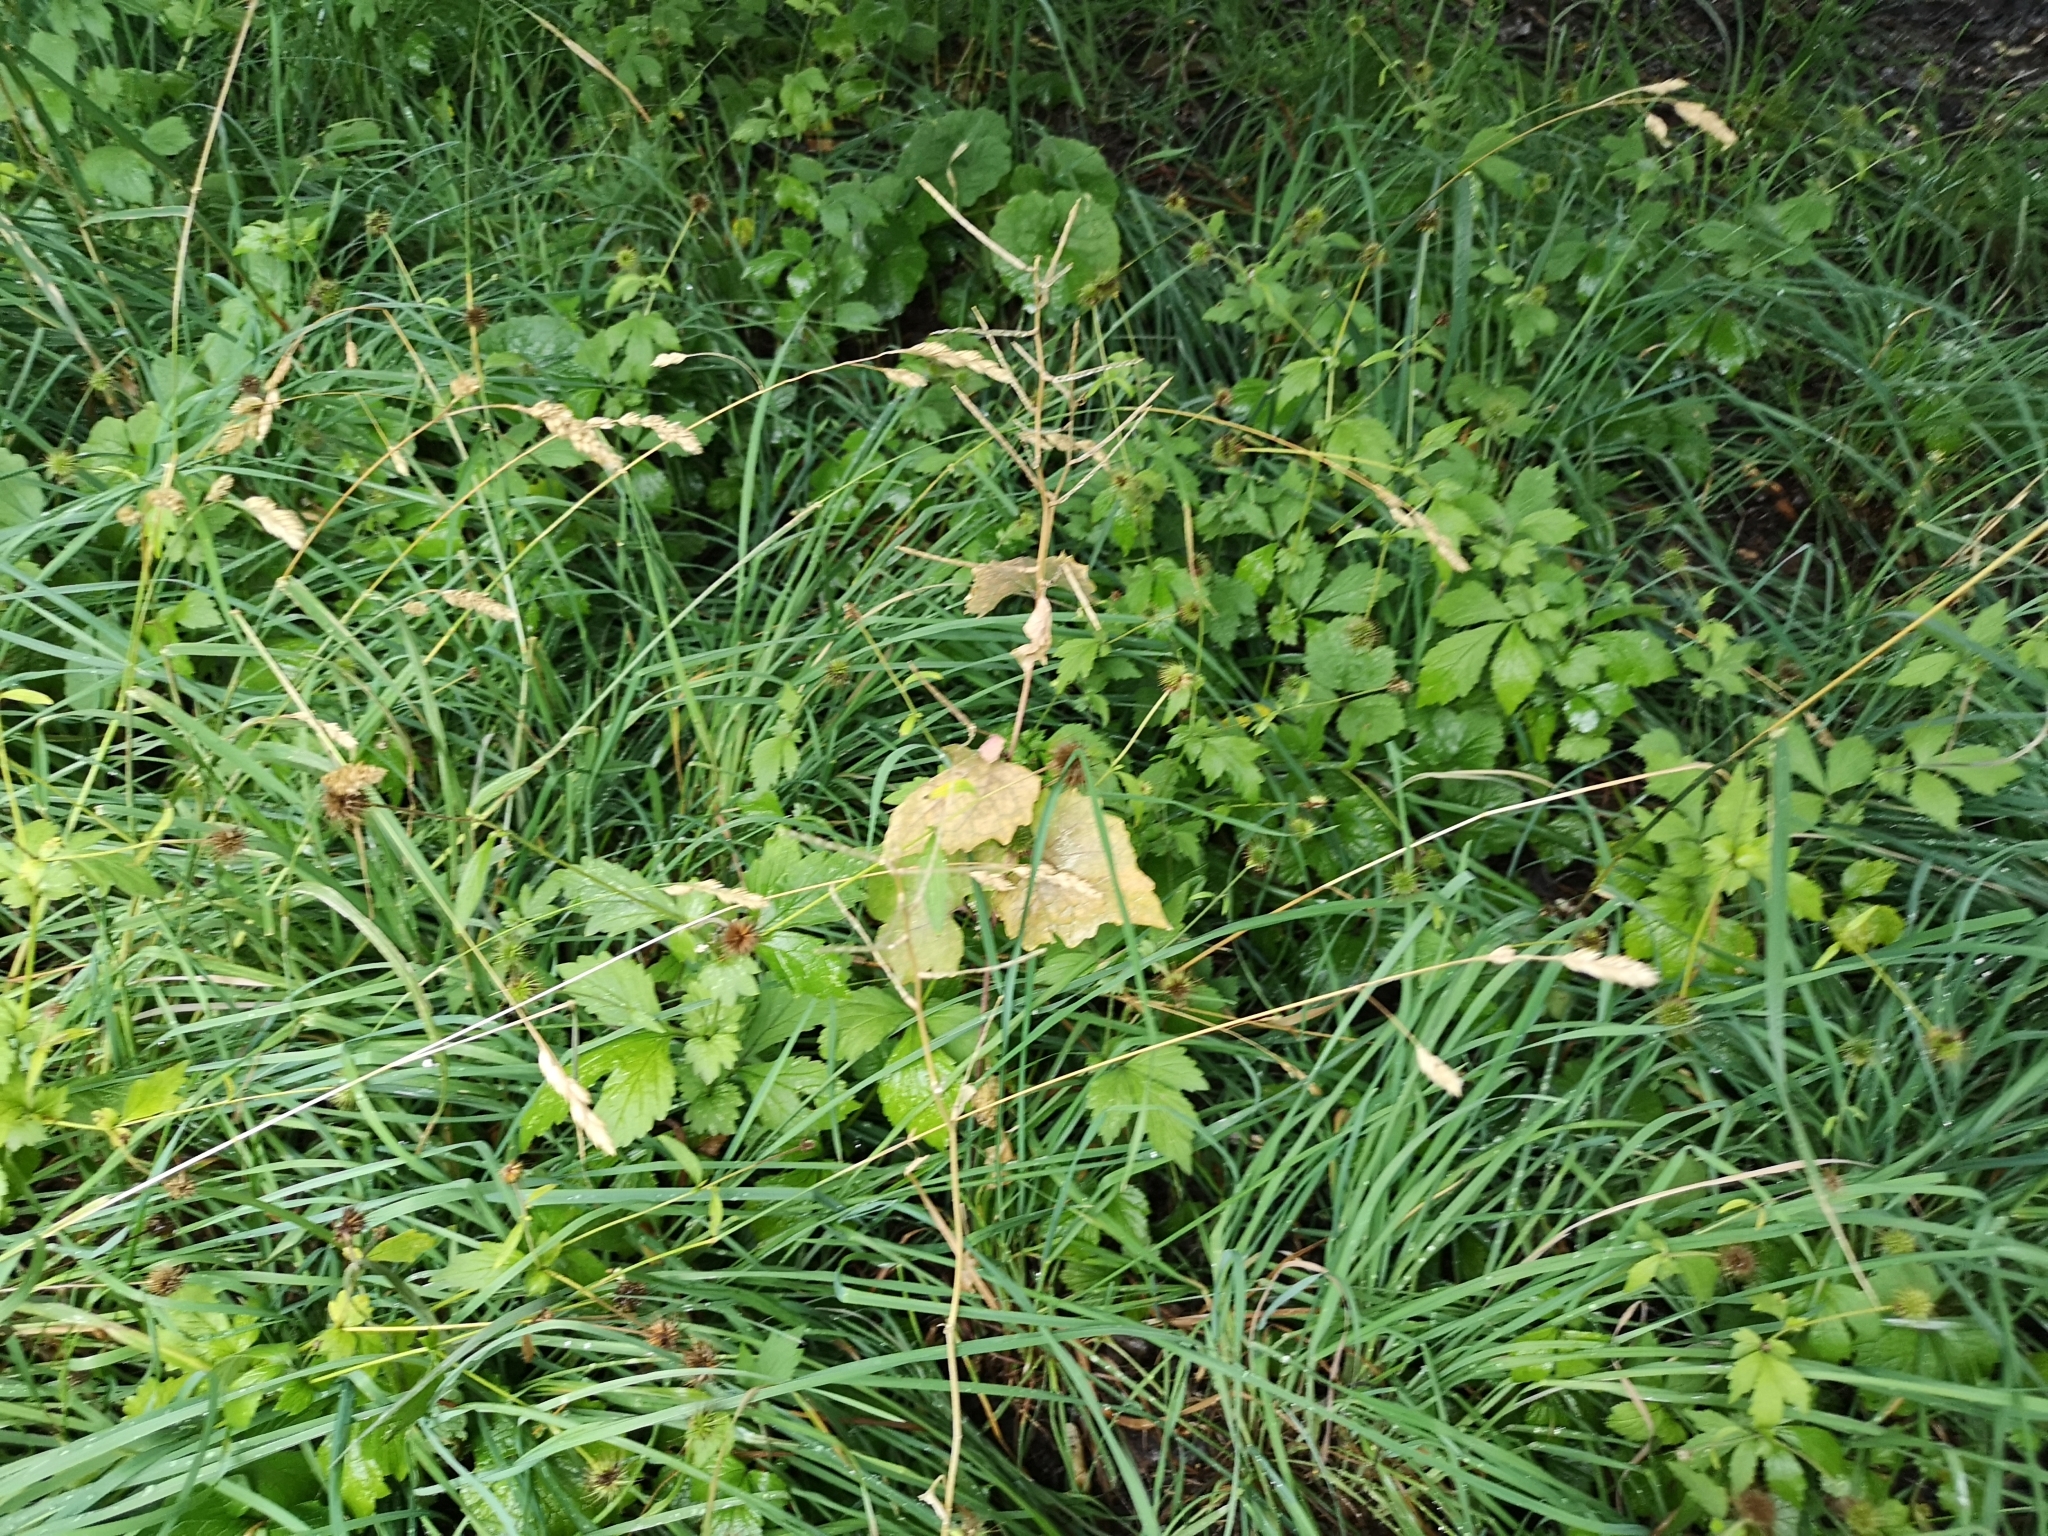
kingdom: Plantae
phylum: Tracheophyta
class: Magnoliopsida
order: Brassicales
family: Brassicaceae
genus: Alliaria
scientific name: Alliaria petiolata
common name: Garlic mustard
